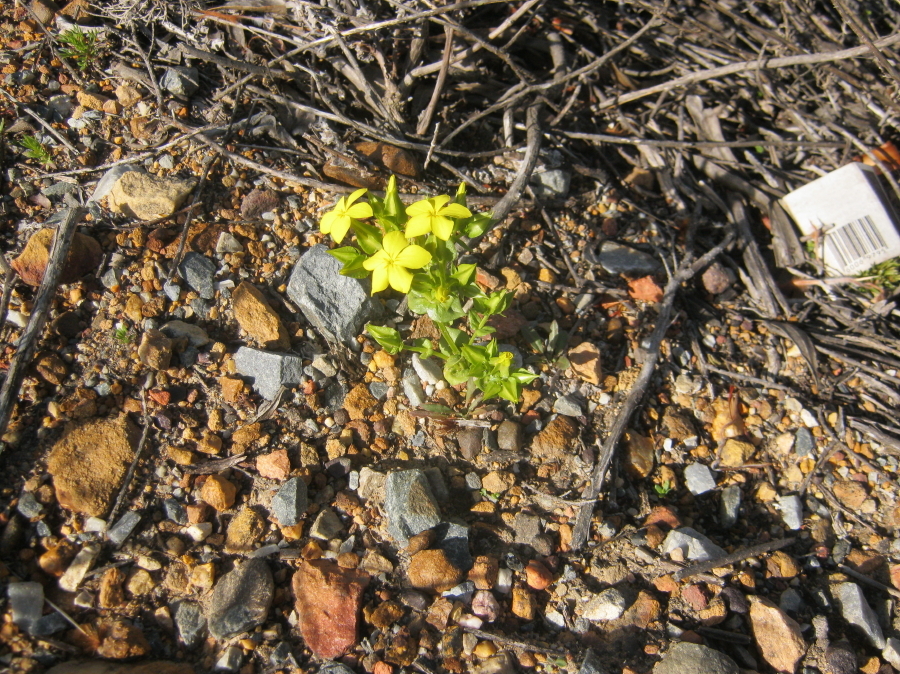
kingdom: Plantae
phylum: Tracheophyta
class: Magnoliopsida
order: Gentianales
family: Gentianaceae
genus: Sebaea
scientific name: Sebaea exacoides
